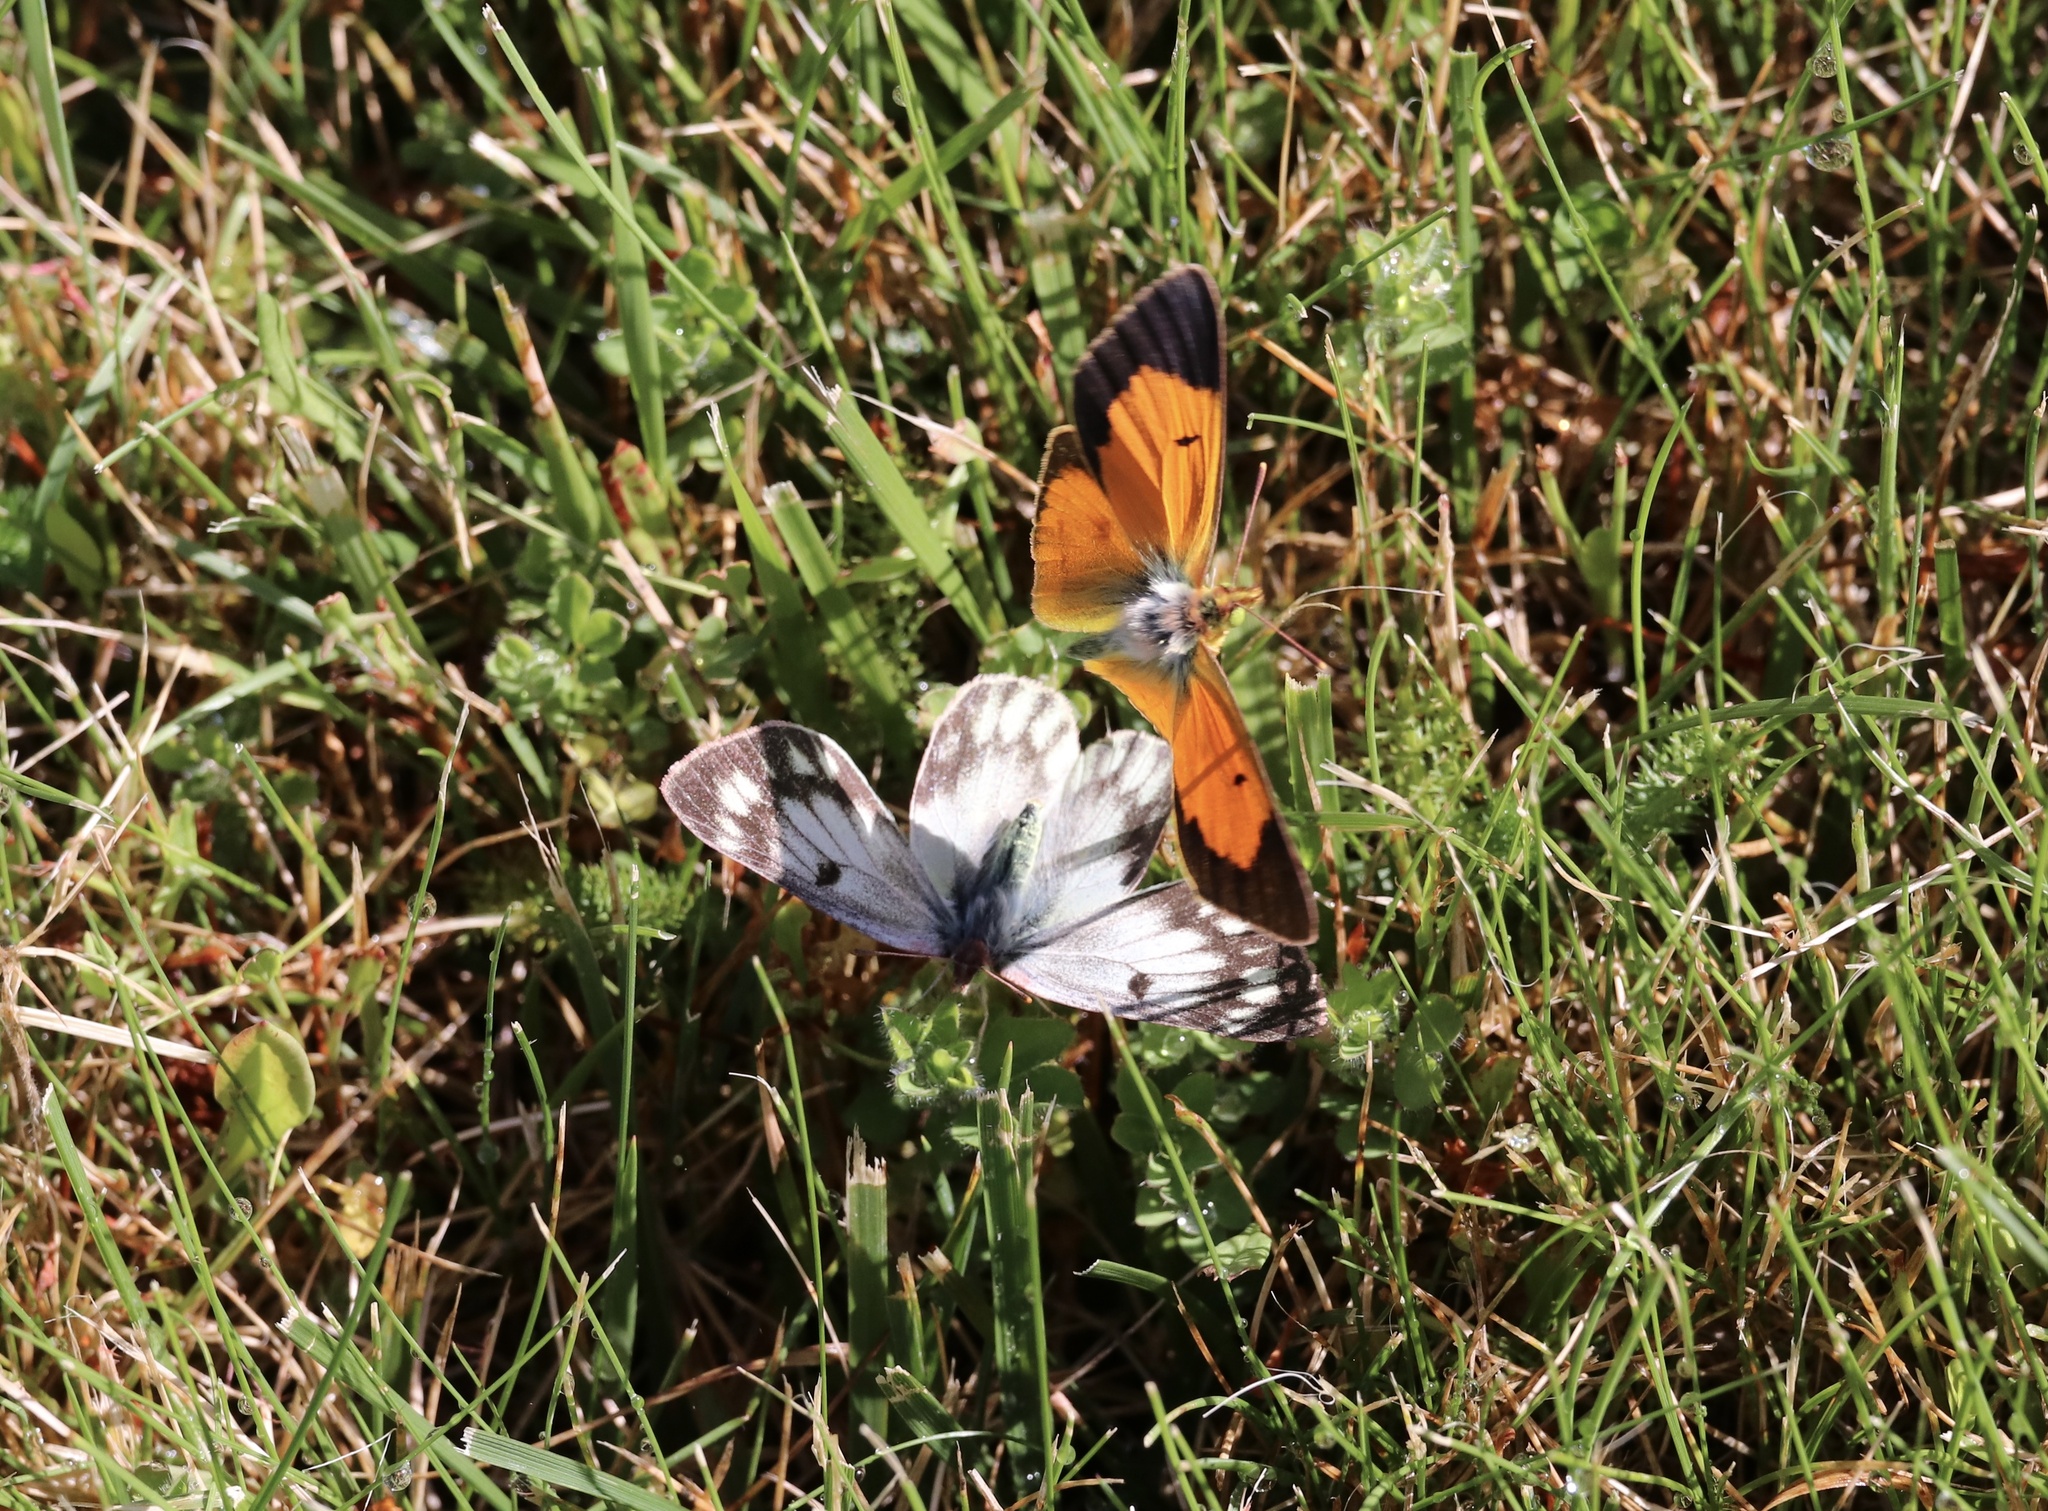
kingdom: Animalia
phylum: Arthropoda
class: Insecta
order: Lepidoptera
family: Pieridae
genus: Colias
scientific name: Colias vauthierii
